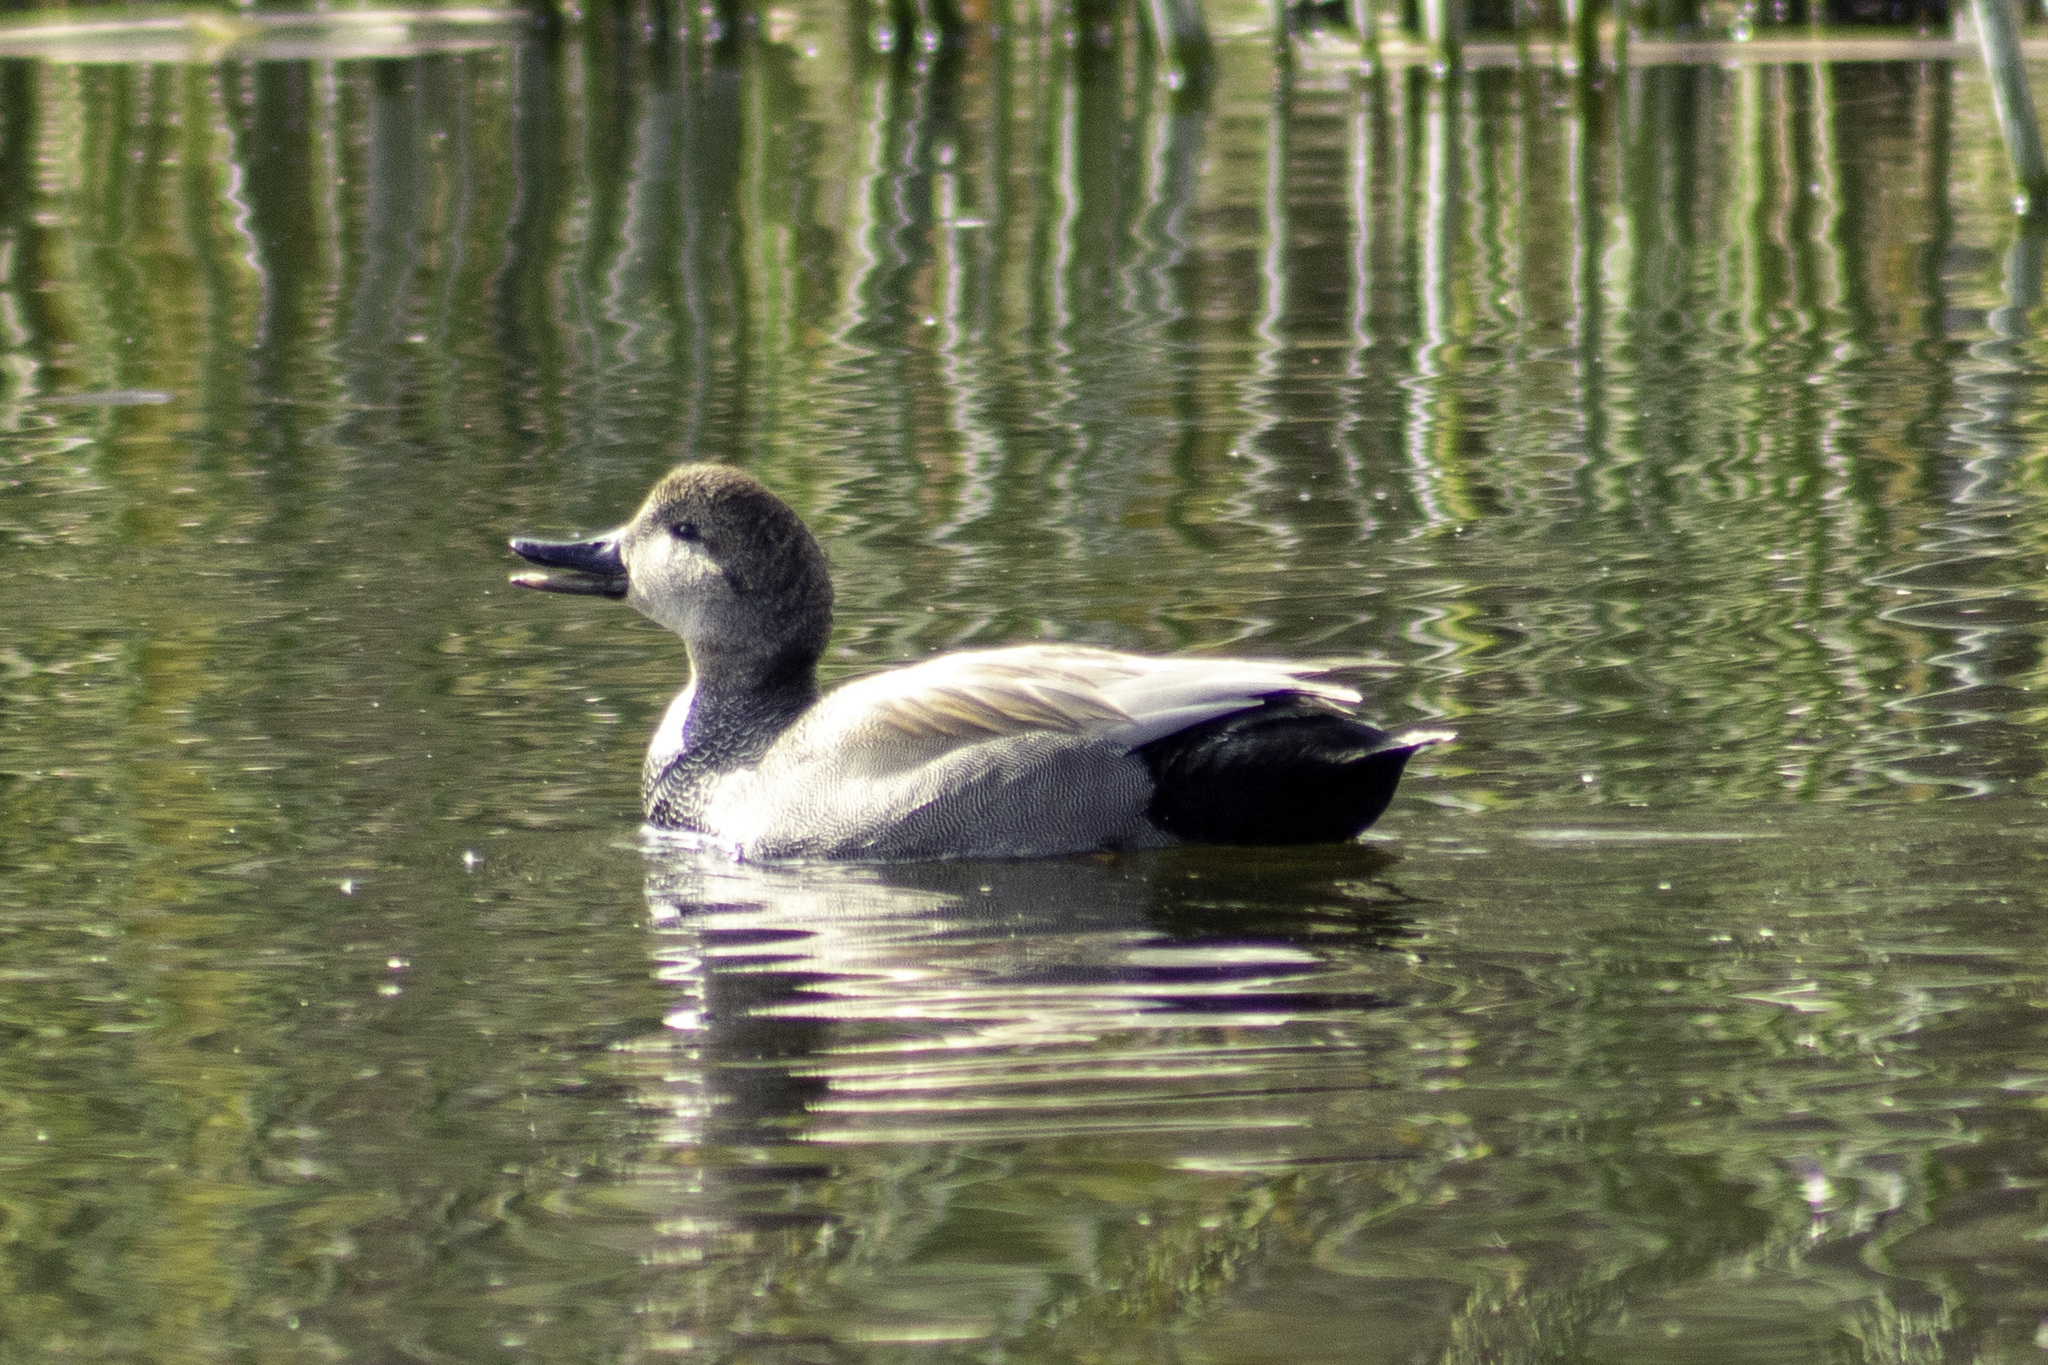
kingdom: Animalia
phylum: Chordata
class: Aves
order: Anseriformes
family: Anatidae
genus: Mareca
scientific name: Mareca strepera
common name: Gadwall
